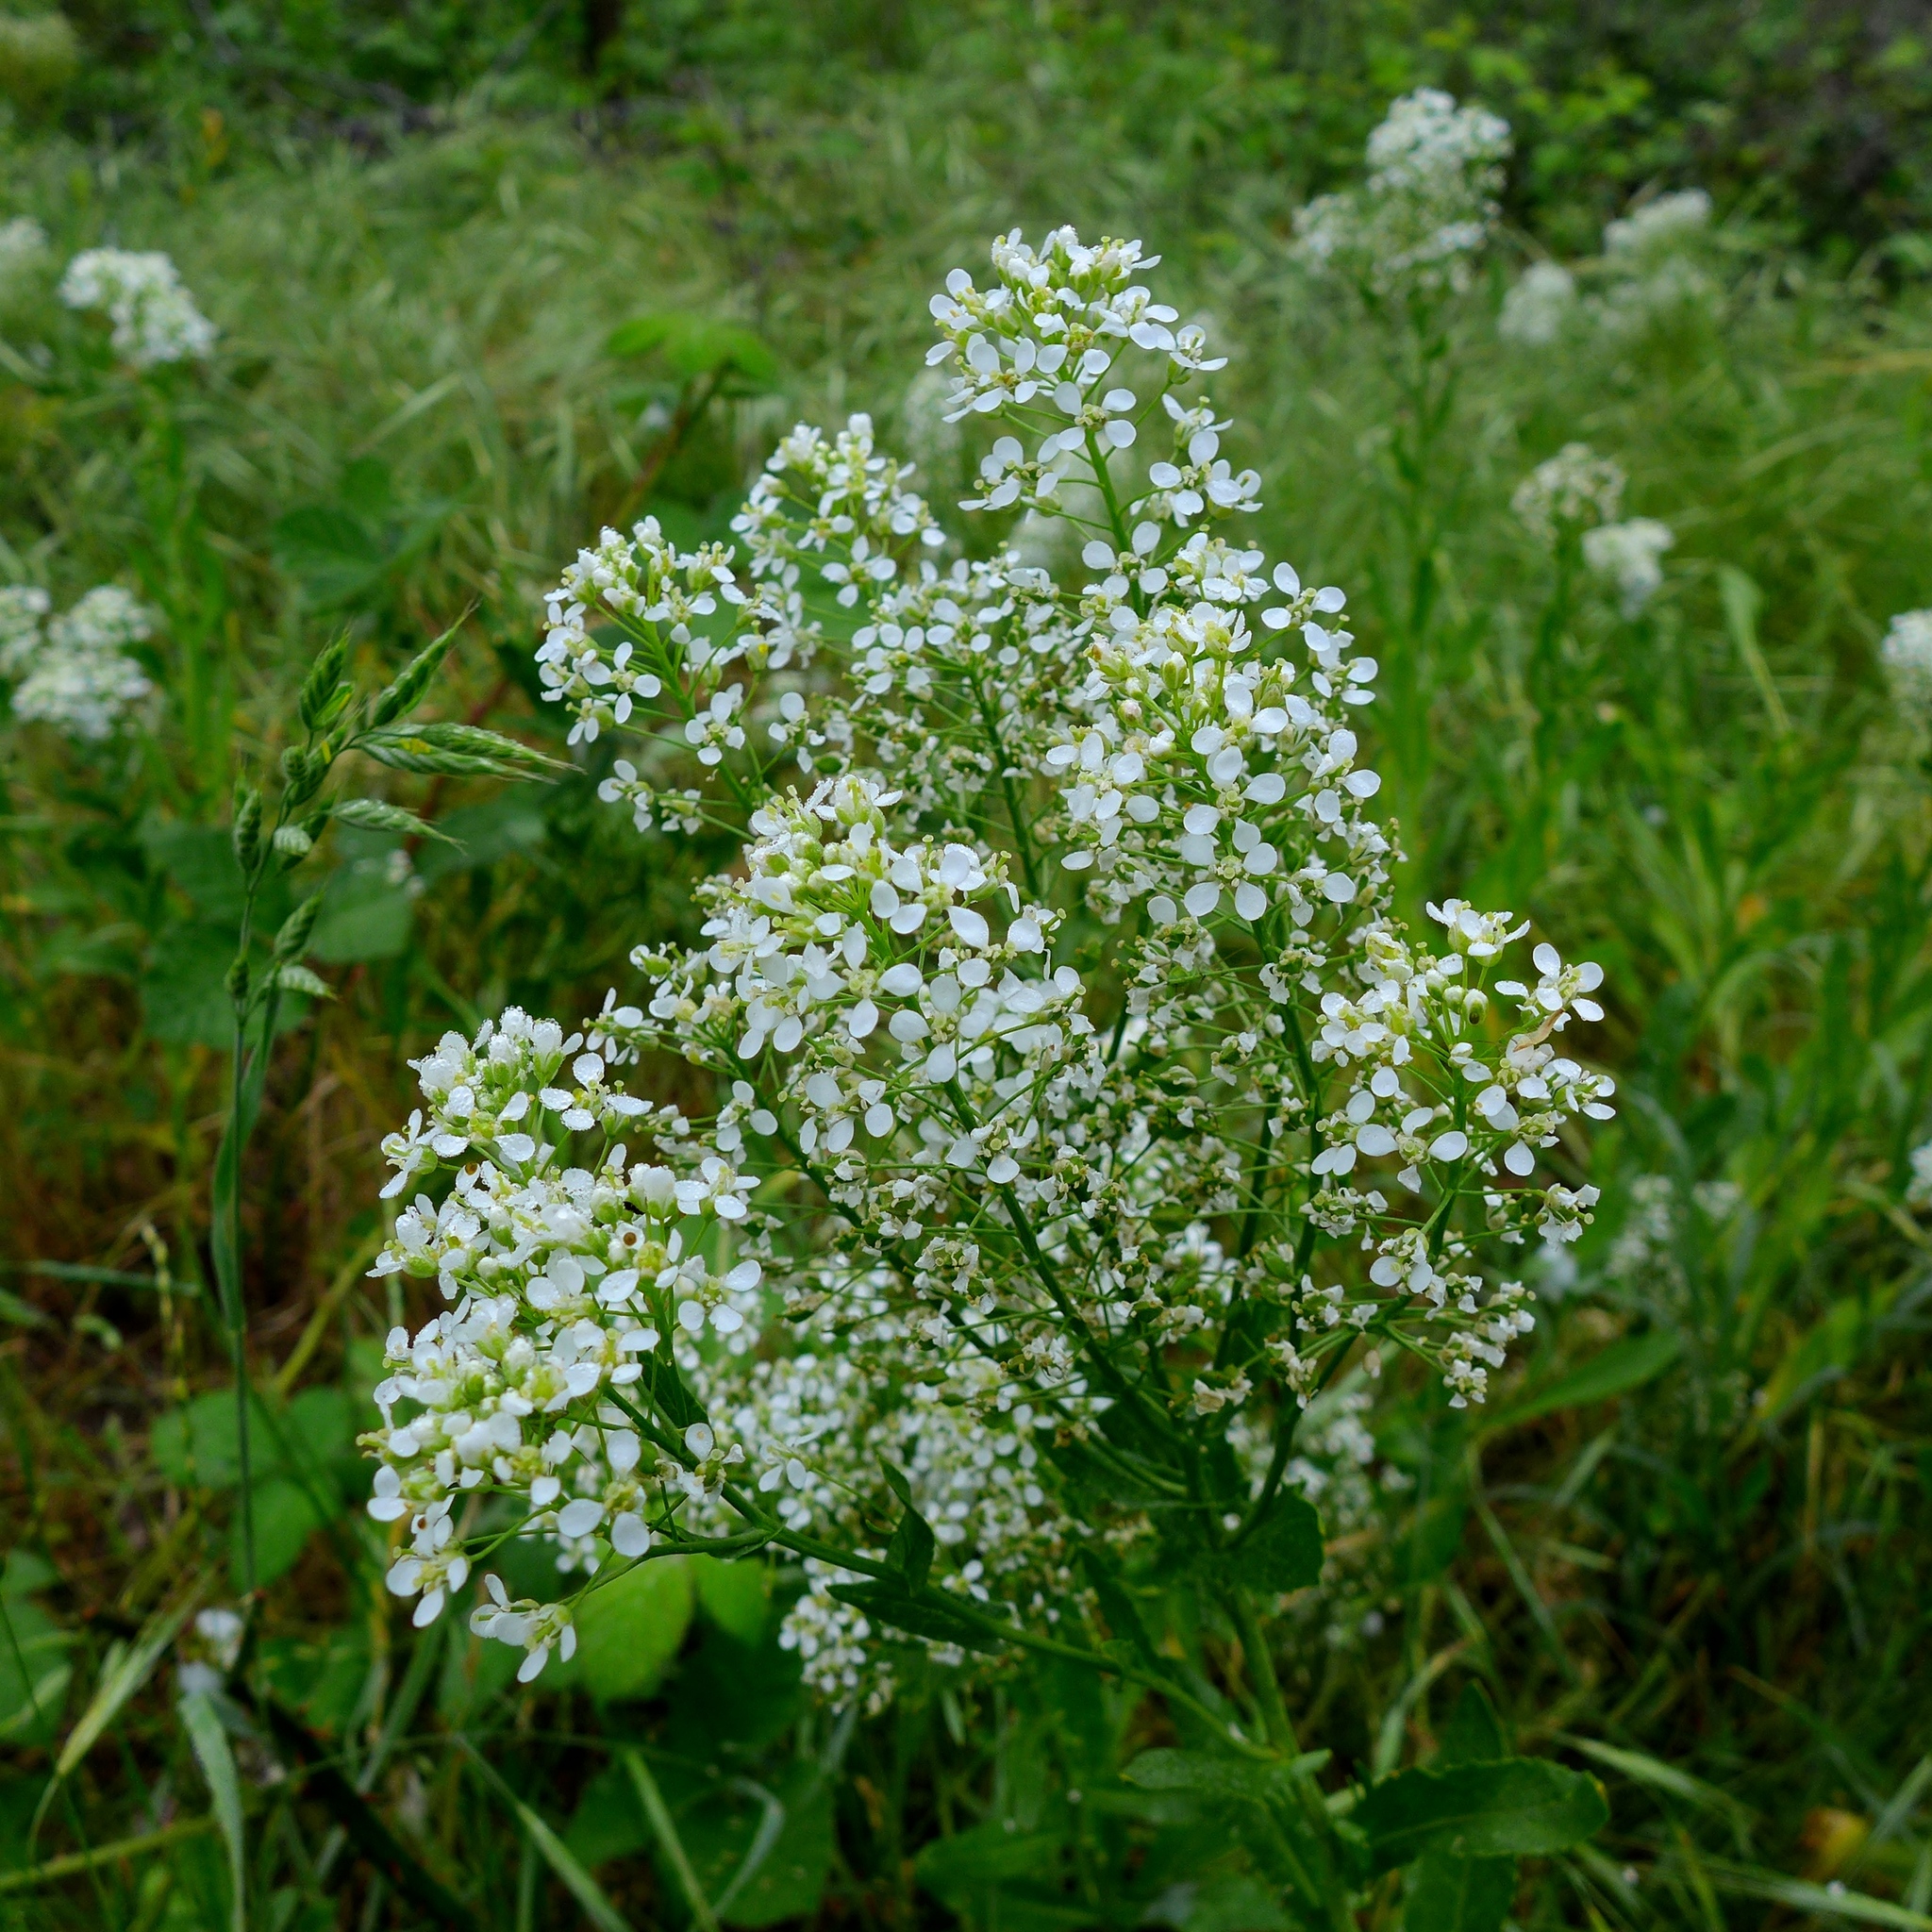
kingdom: Plantae
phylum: Tracheophyta
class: Magnoliopsida
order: Brassicales
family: Brassicaceae
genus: Lepidium
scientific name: Lepidium latifolium
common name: Dittander
